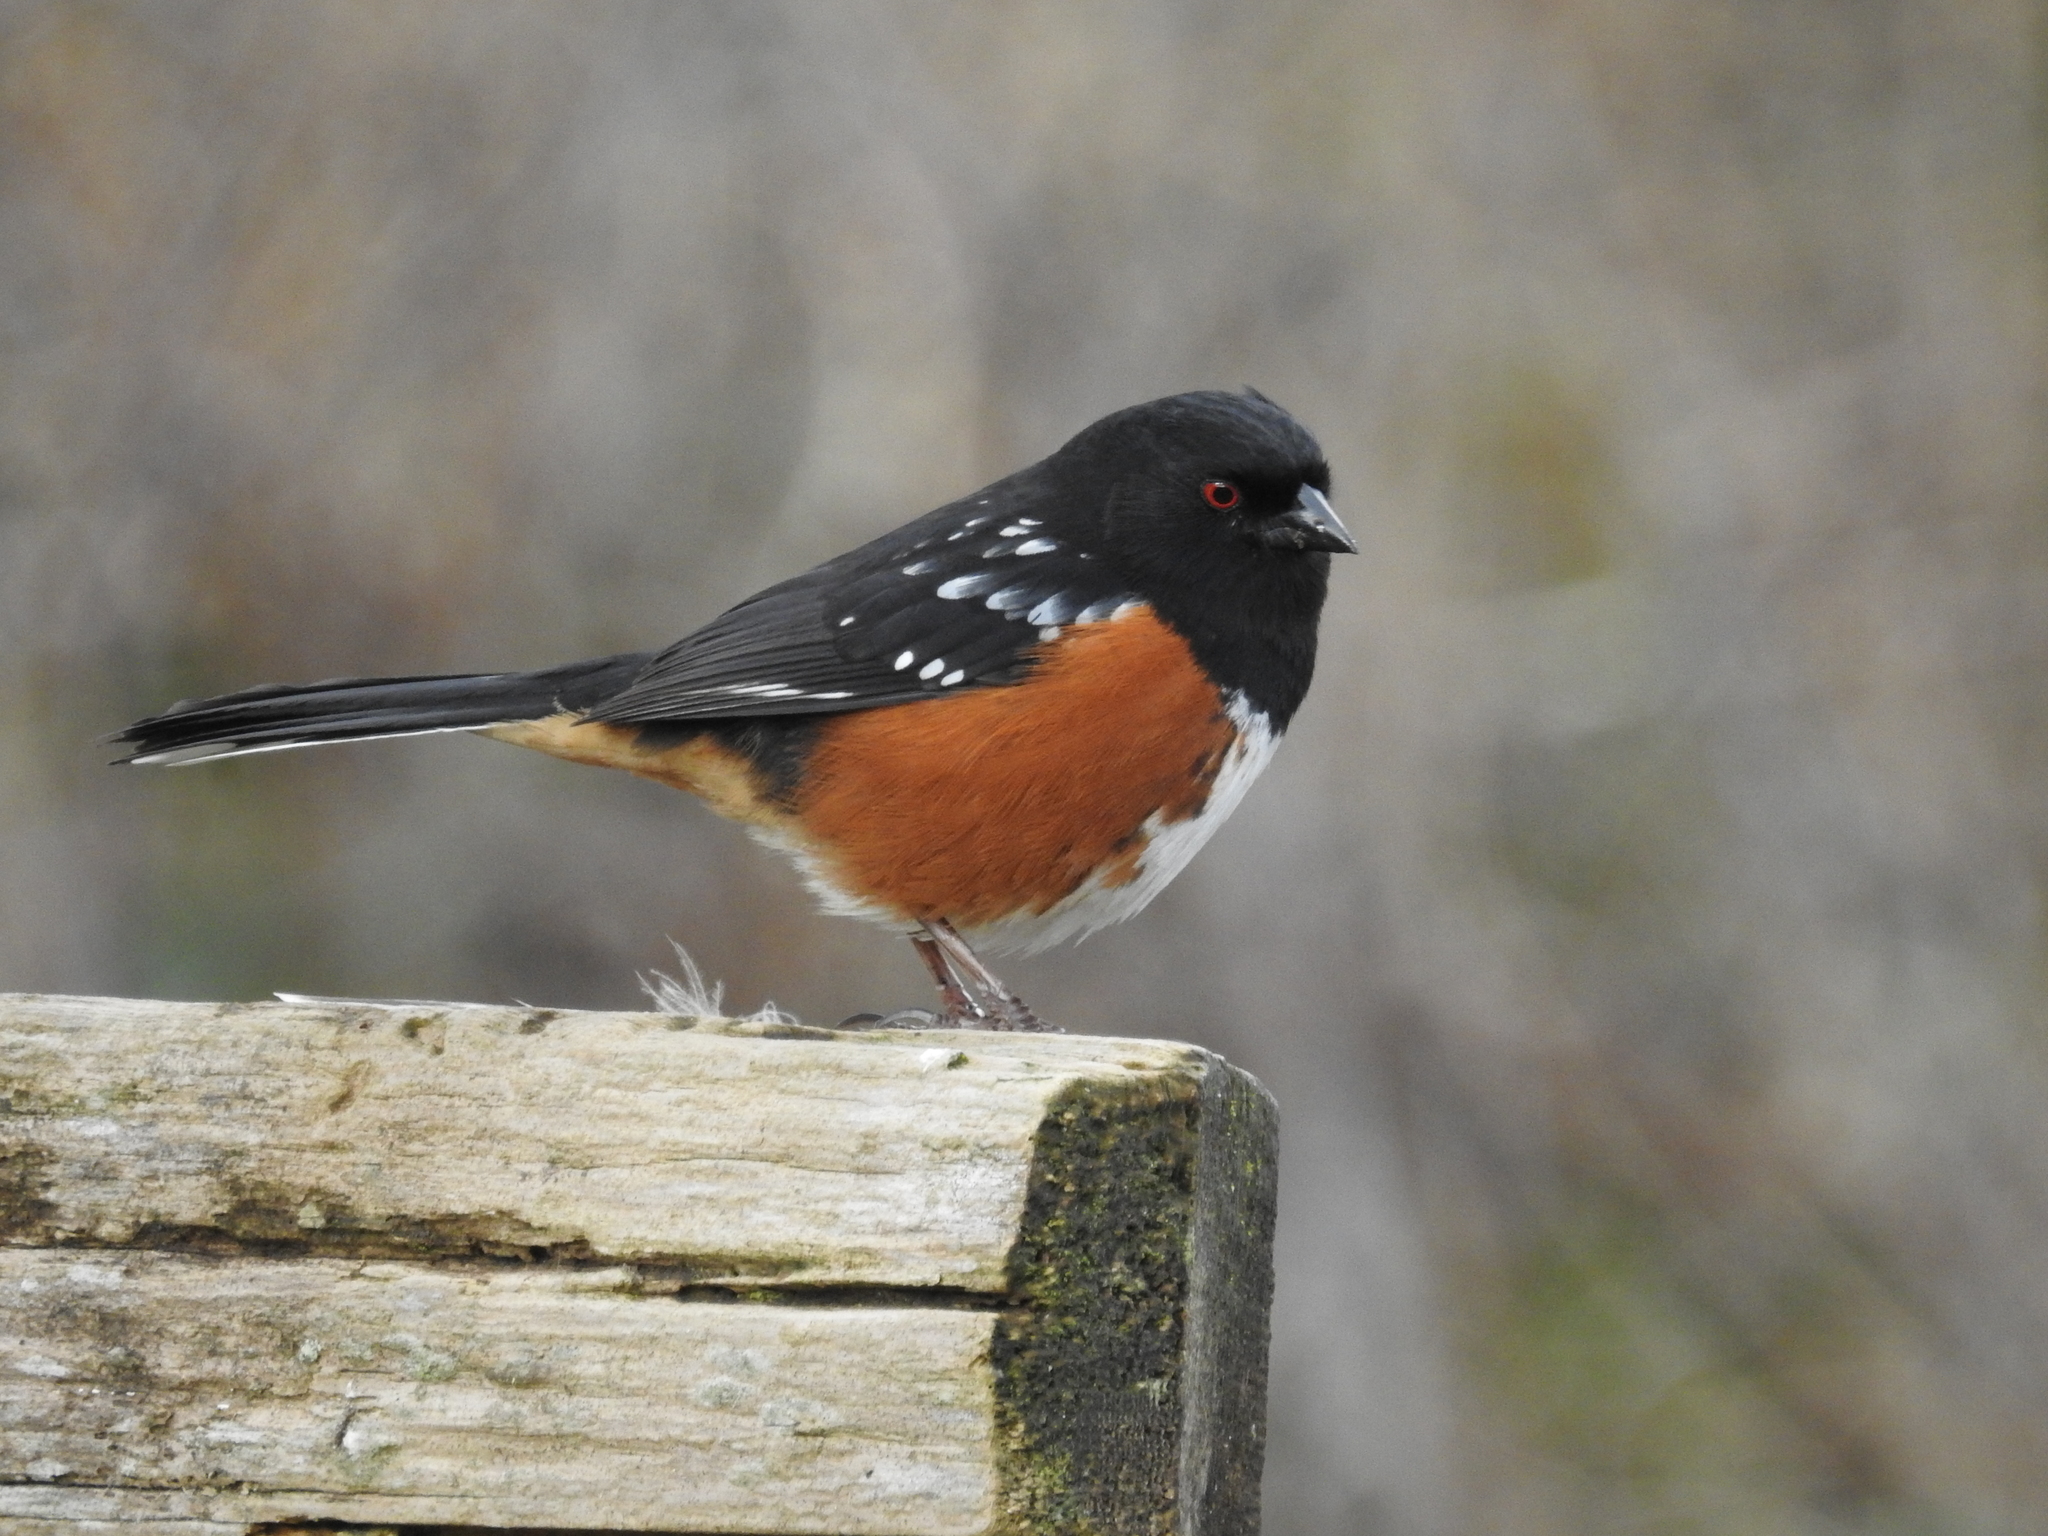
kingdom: Animalia
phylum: Chordata
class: Aves
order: Passeriformes
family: Passerellidae
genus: Pipilo
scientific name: Pipilo maculatus
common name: Spotted towhee
